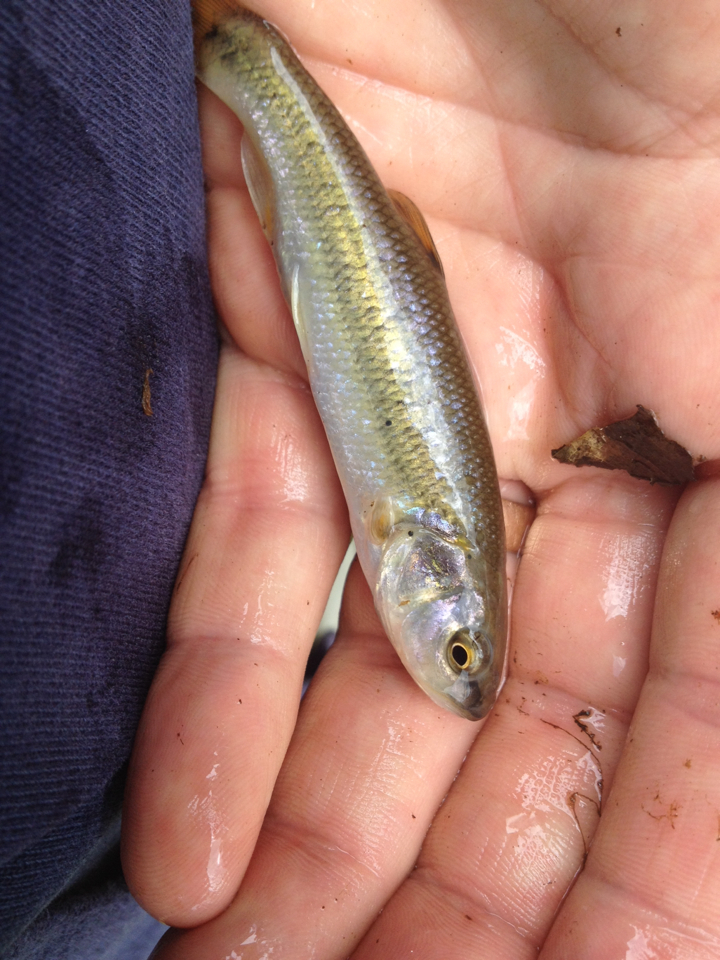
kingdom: Animalia
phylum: Chordata
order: Cypriniformes
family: Cyprinidae
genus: Semotilus
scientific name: Semotilus atromaculatus
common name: Creek chub
